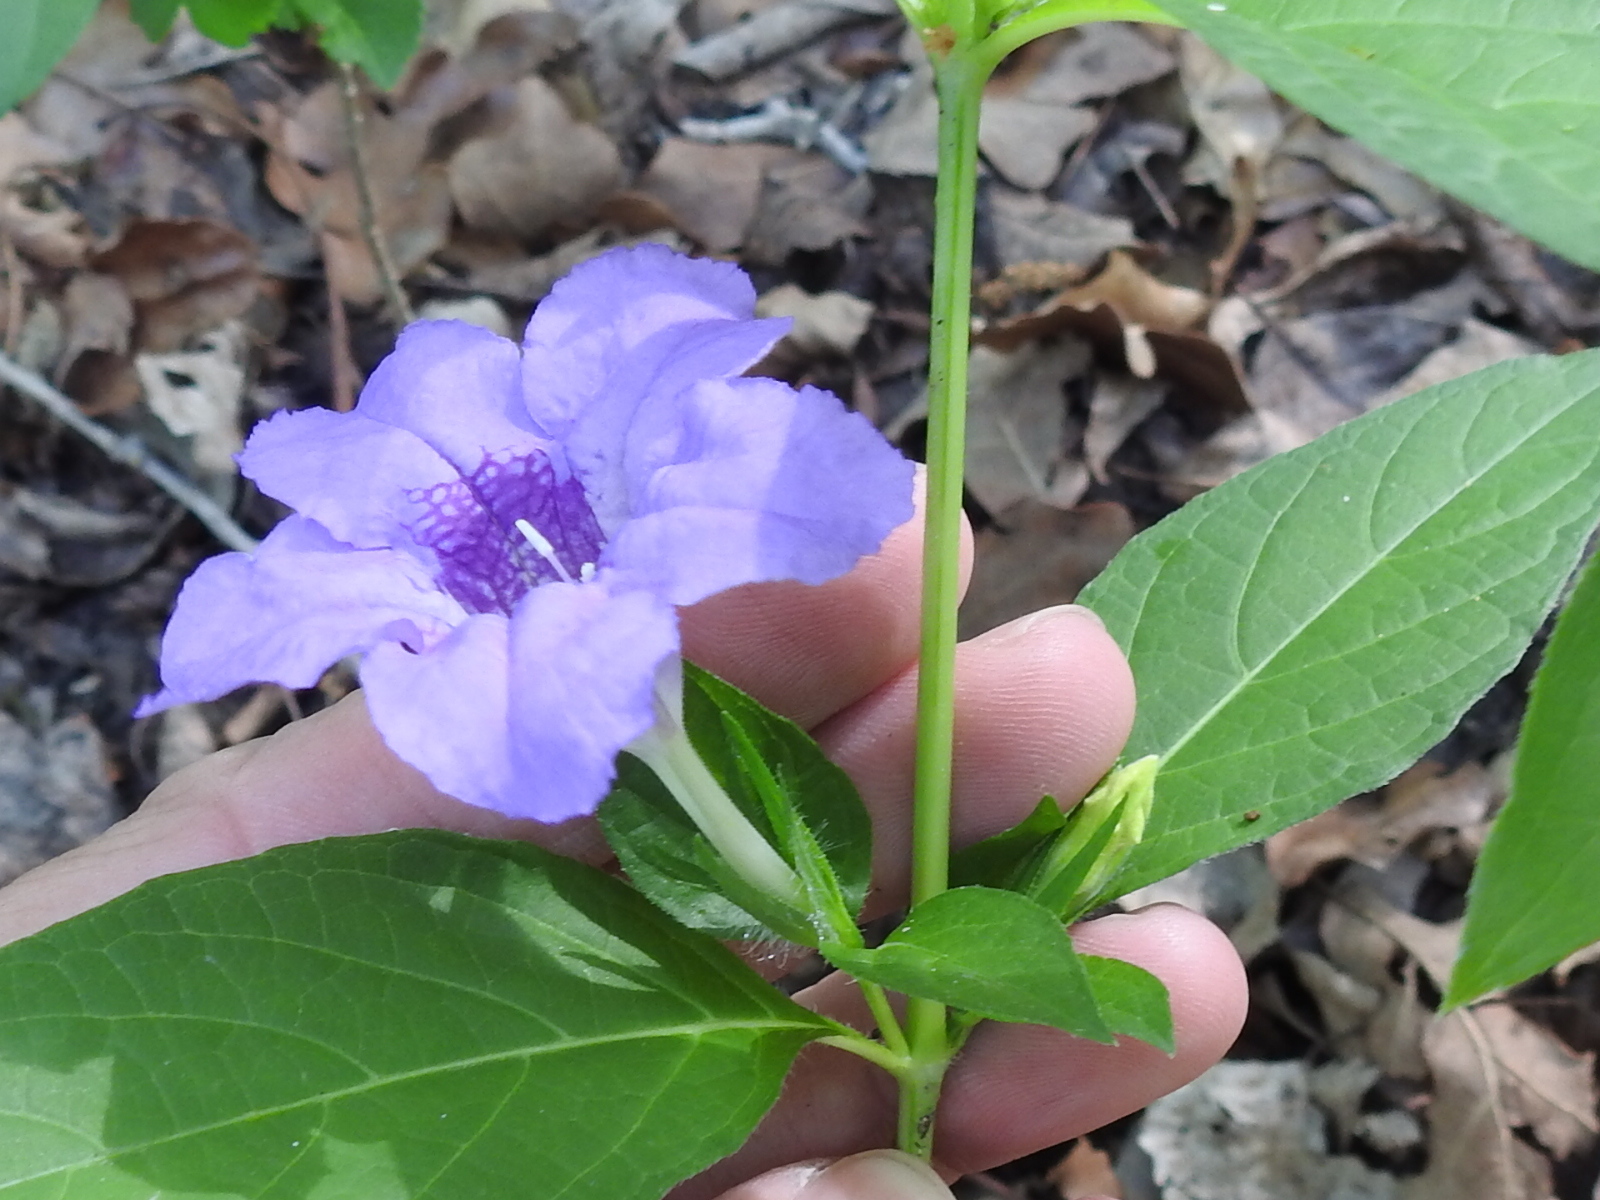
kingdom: Plantae
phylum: Tracheophyta
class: Magnoliopsida
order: Lamiales
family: Acanthaceae
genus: Ruellia
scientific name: Ruellia ciliatiflora
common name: Hairyflower wild petunia
